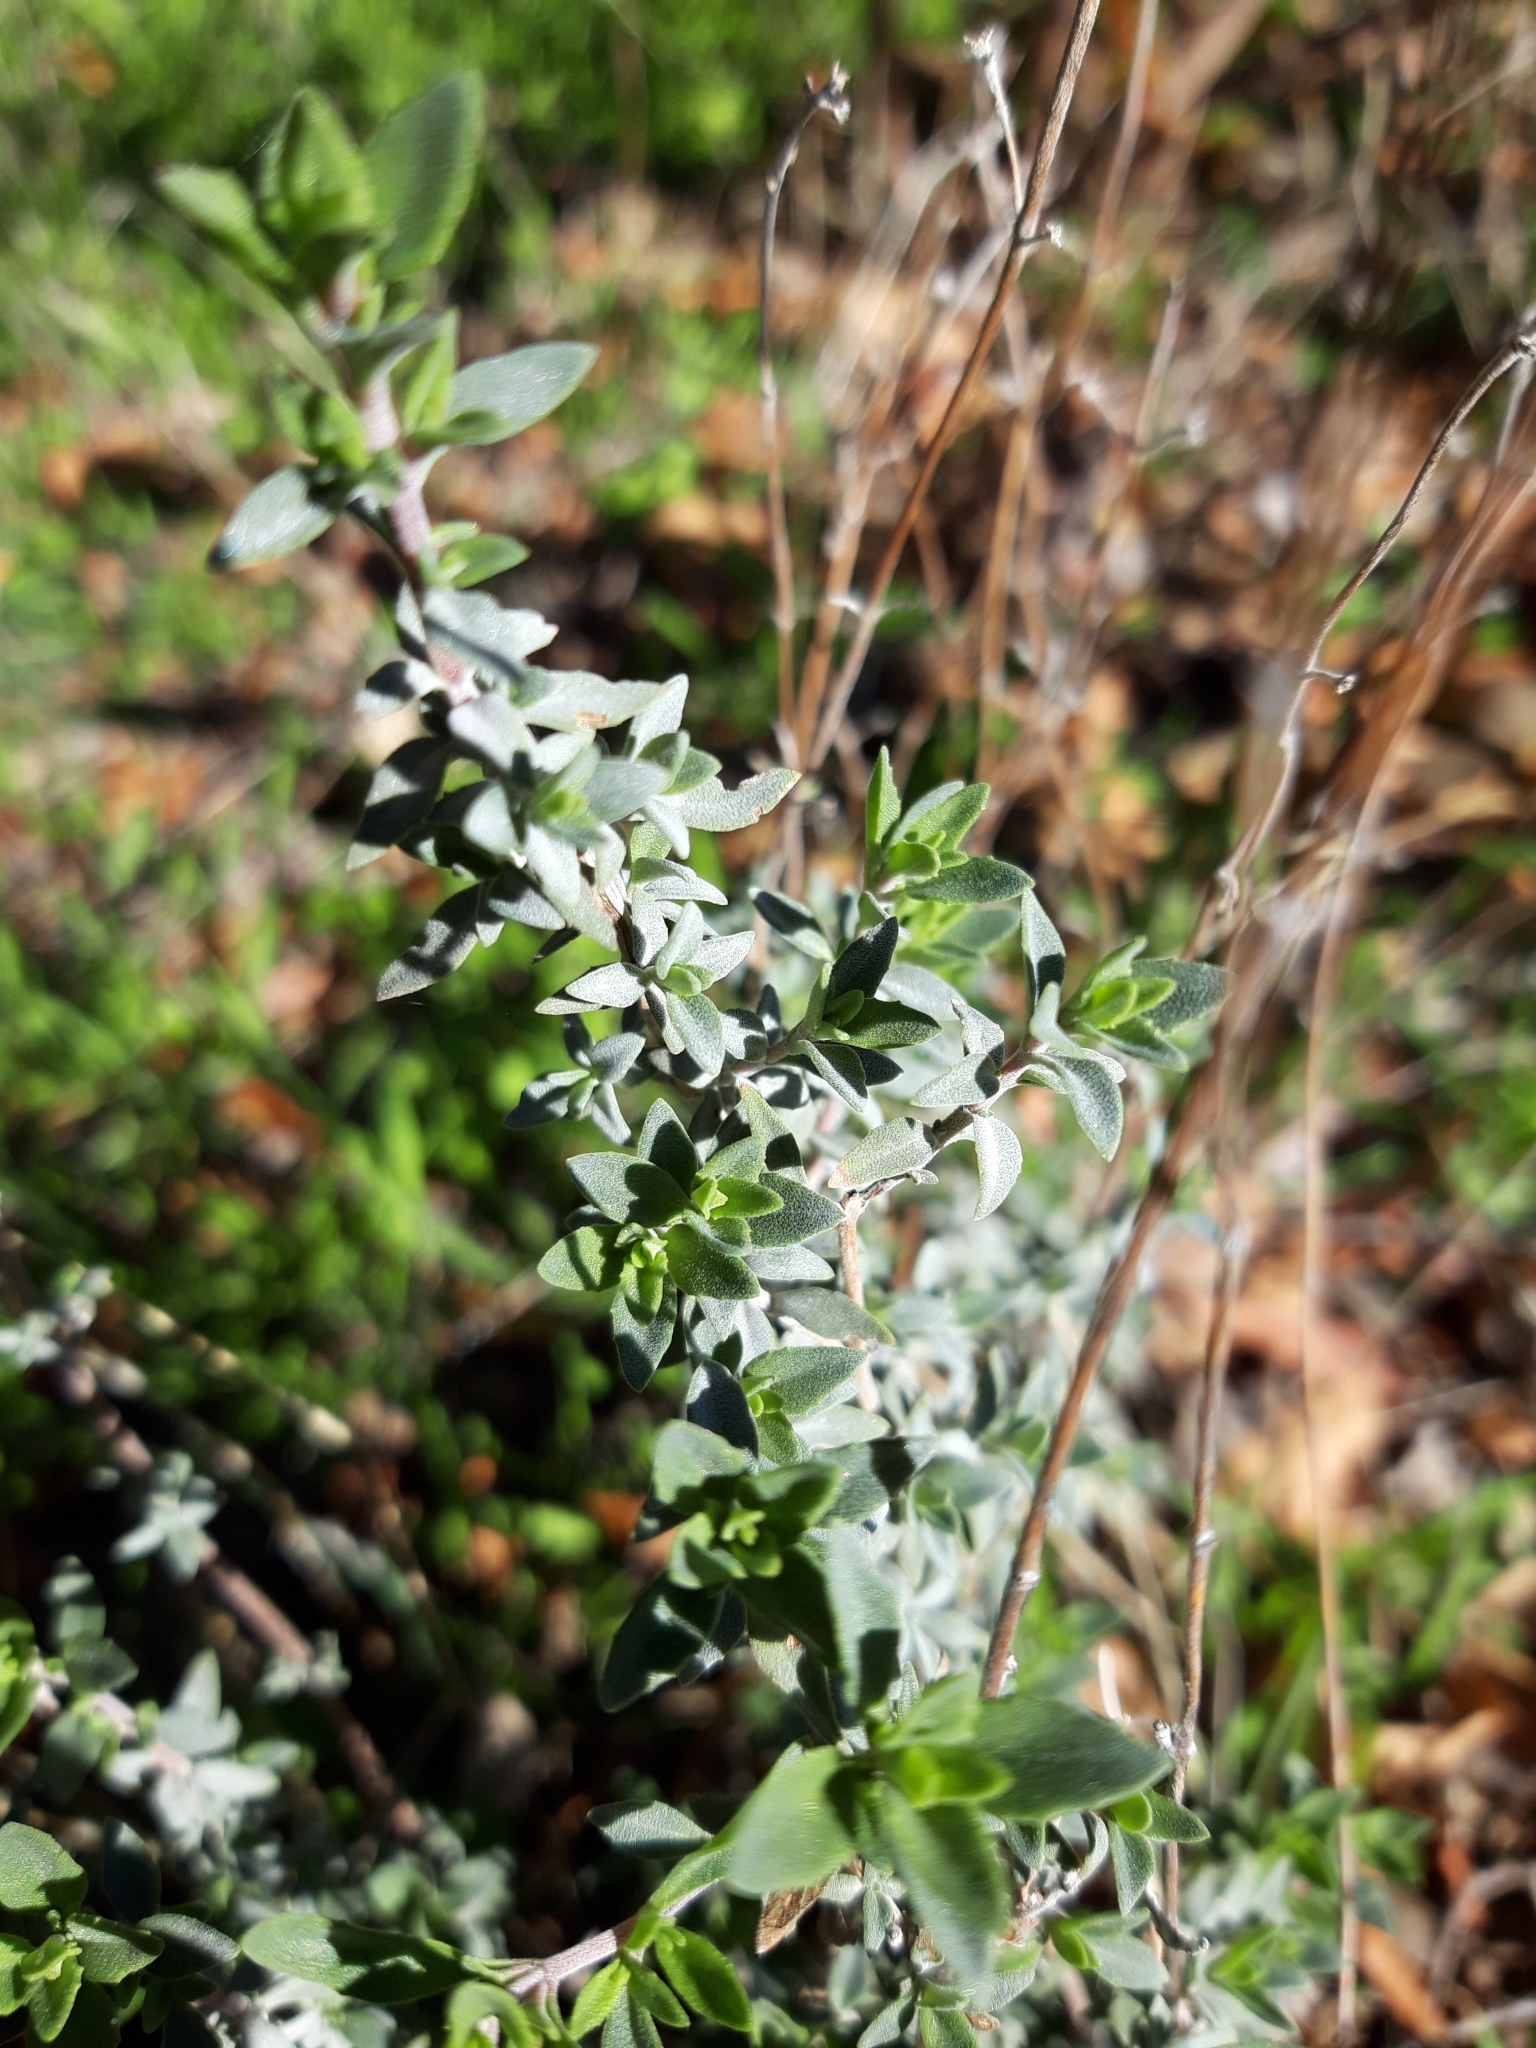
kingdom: Plantae
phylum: Tracheophyta
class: Magnoliopsida
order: Lamiales
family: Lamiaceae
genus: Thymus
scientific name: Thymus mastichina
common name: Mastic thyme
